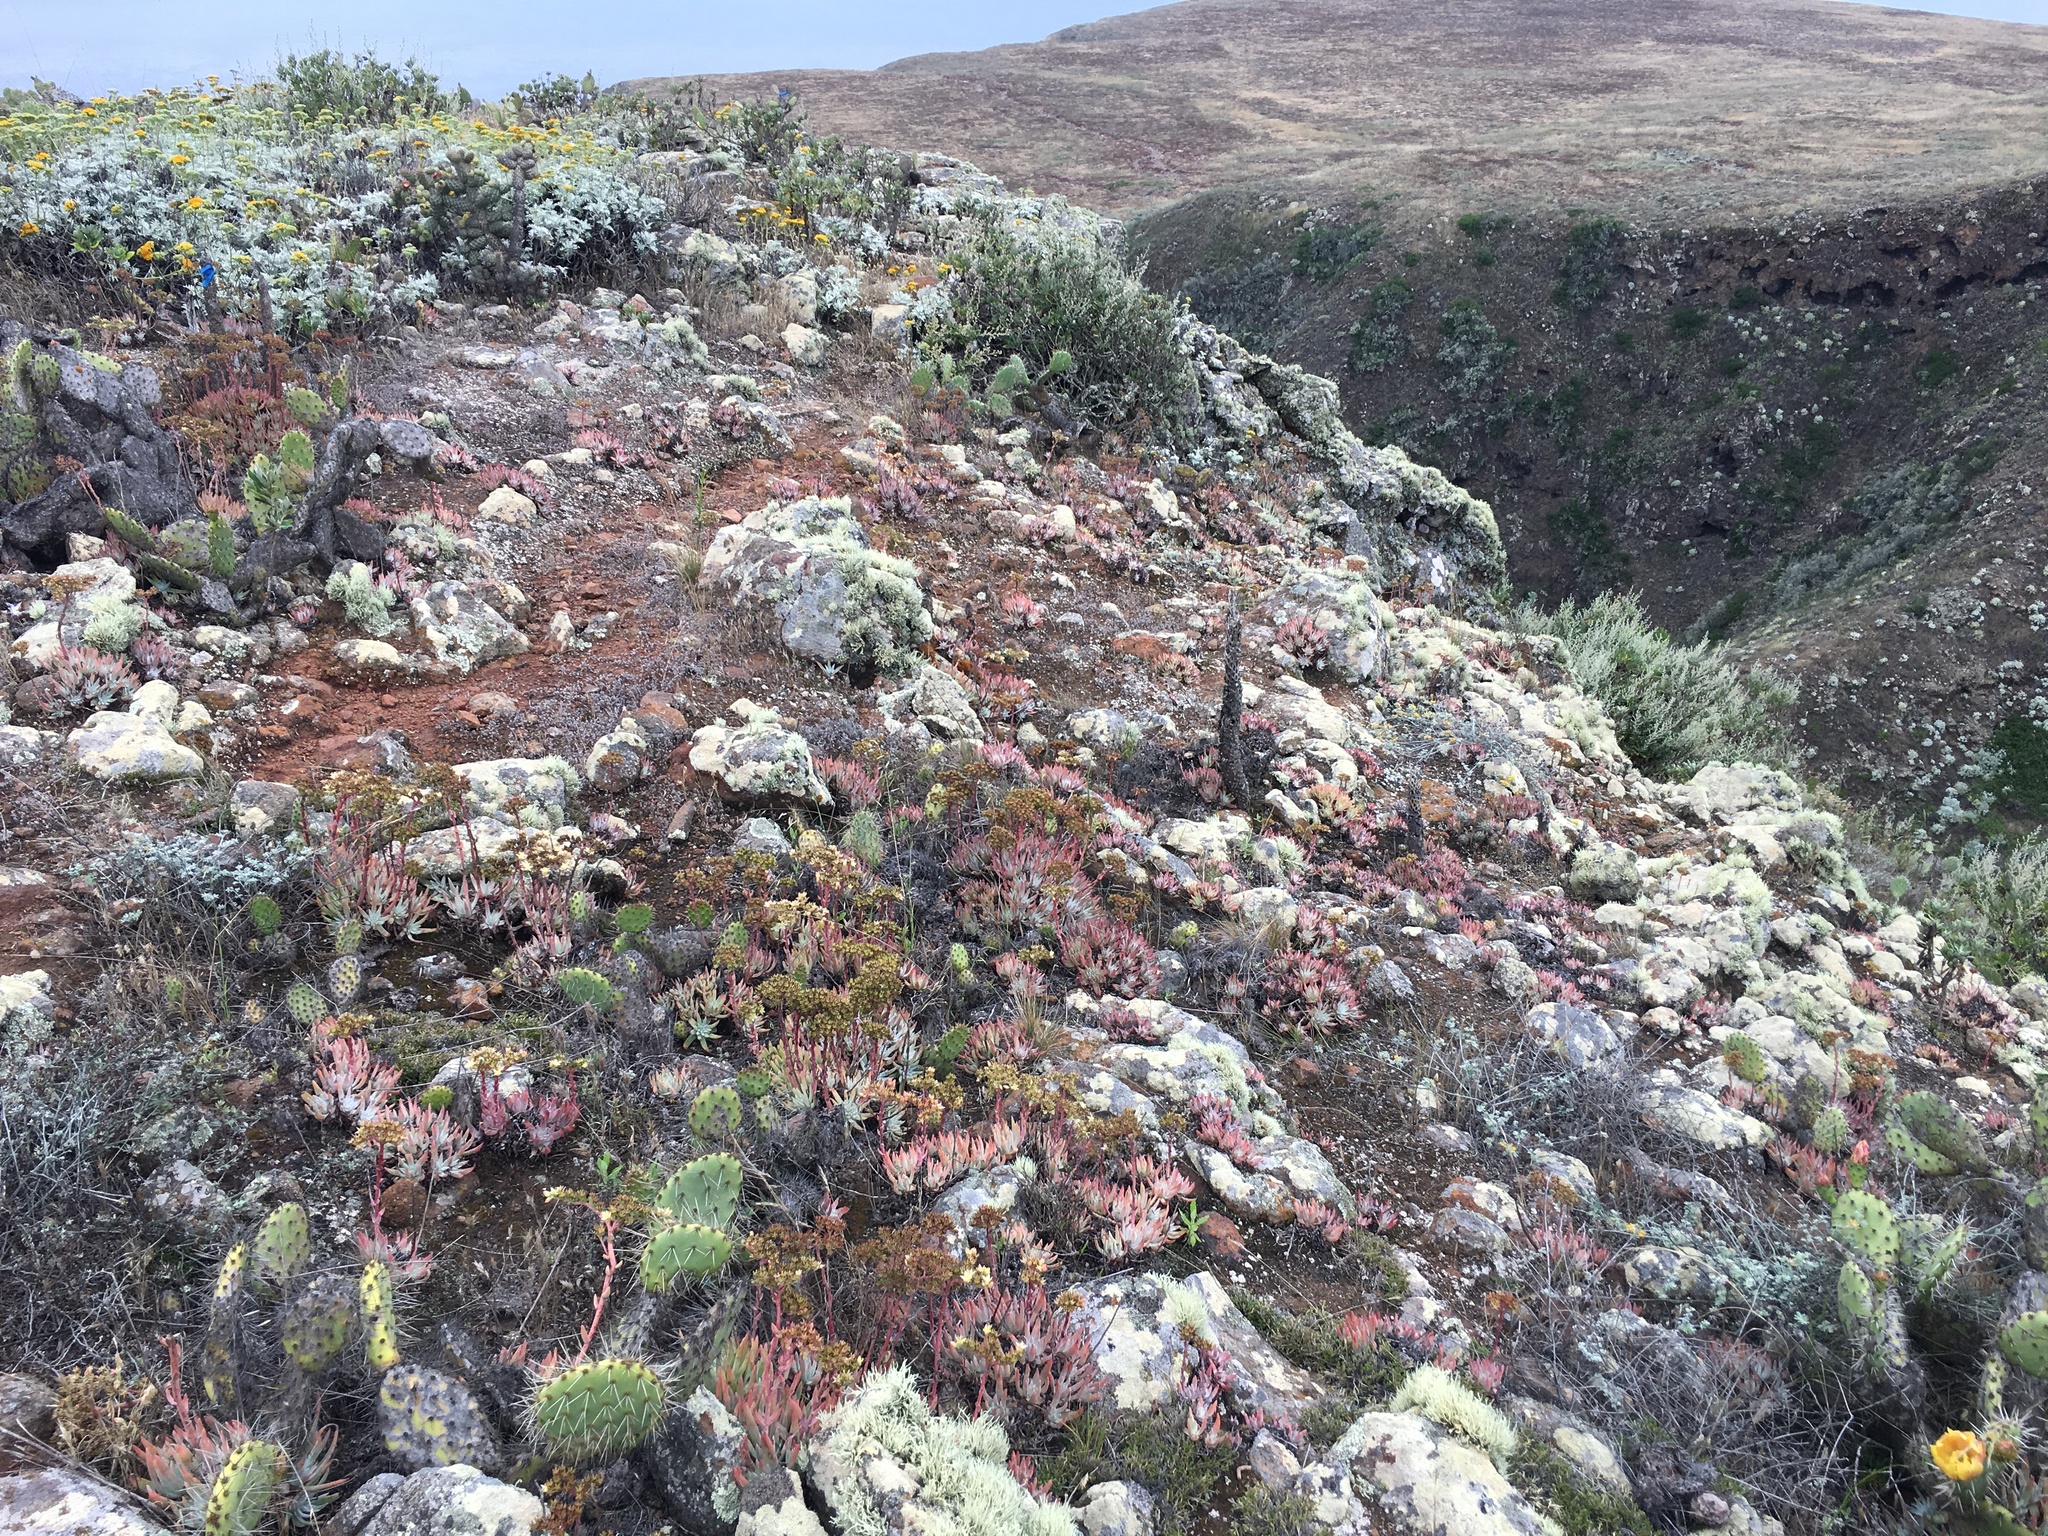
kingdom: Plantae
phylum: Tracheophyta
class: Magnoliopsida
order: Saxifragales
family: Crassulaceae
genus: Dudleya
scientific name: Dudleya virens
